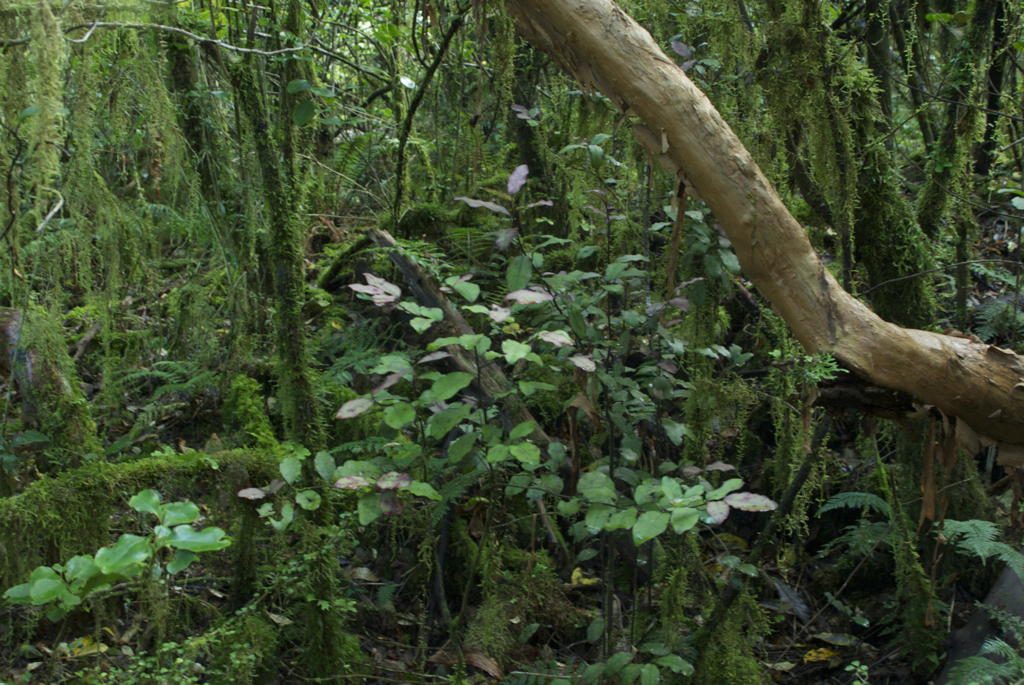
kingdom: Plantae
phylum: Tracheophyta
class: Magnoliopsida
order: Canellales
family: Winteraceae
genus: Pseudowintera
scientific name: Pseudowintera colorata
